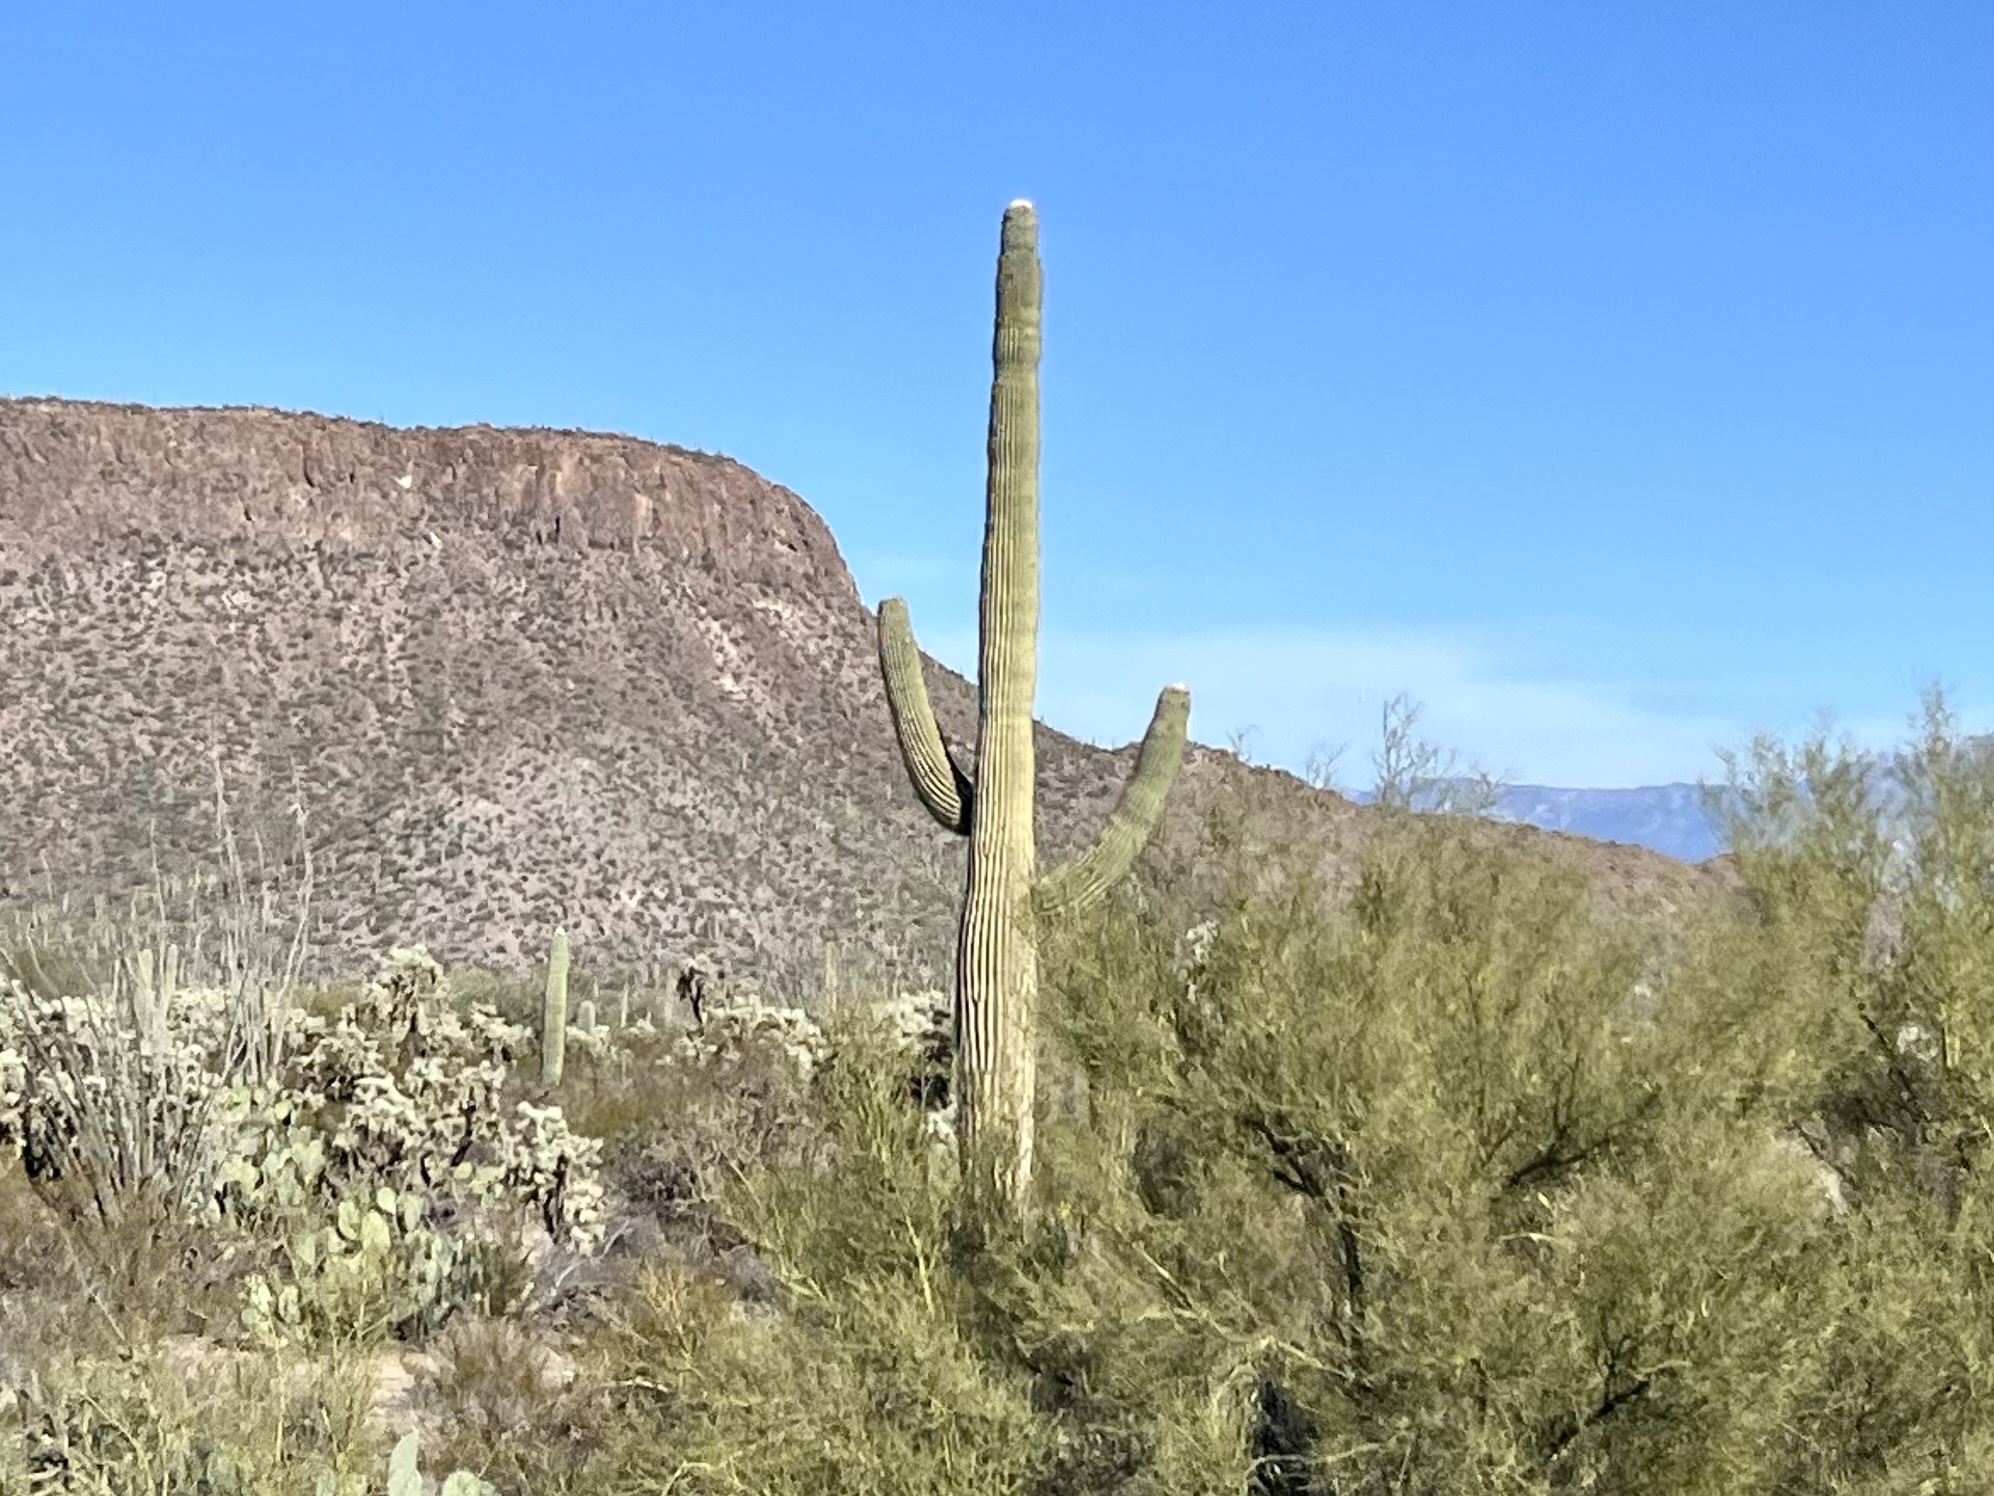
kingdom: Plantae
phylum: Tracheophyta
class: Magnoliopsida
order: Caryophyllales
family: Cactaceae
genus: Carnegiea
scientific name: Carnegiea gigantea
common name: Saguaro
